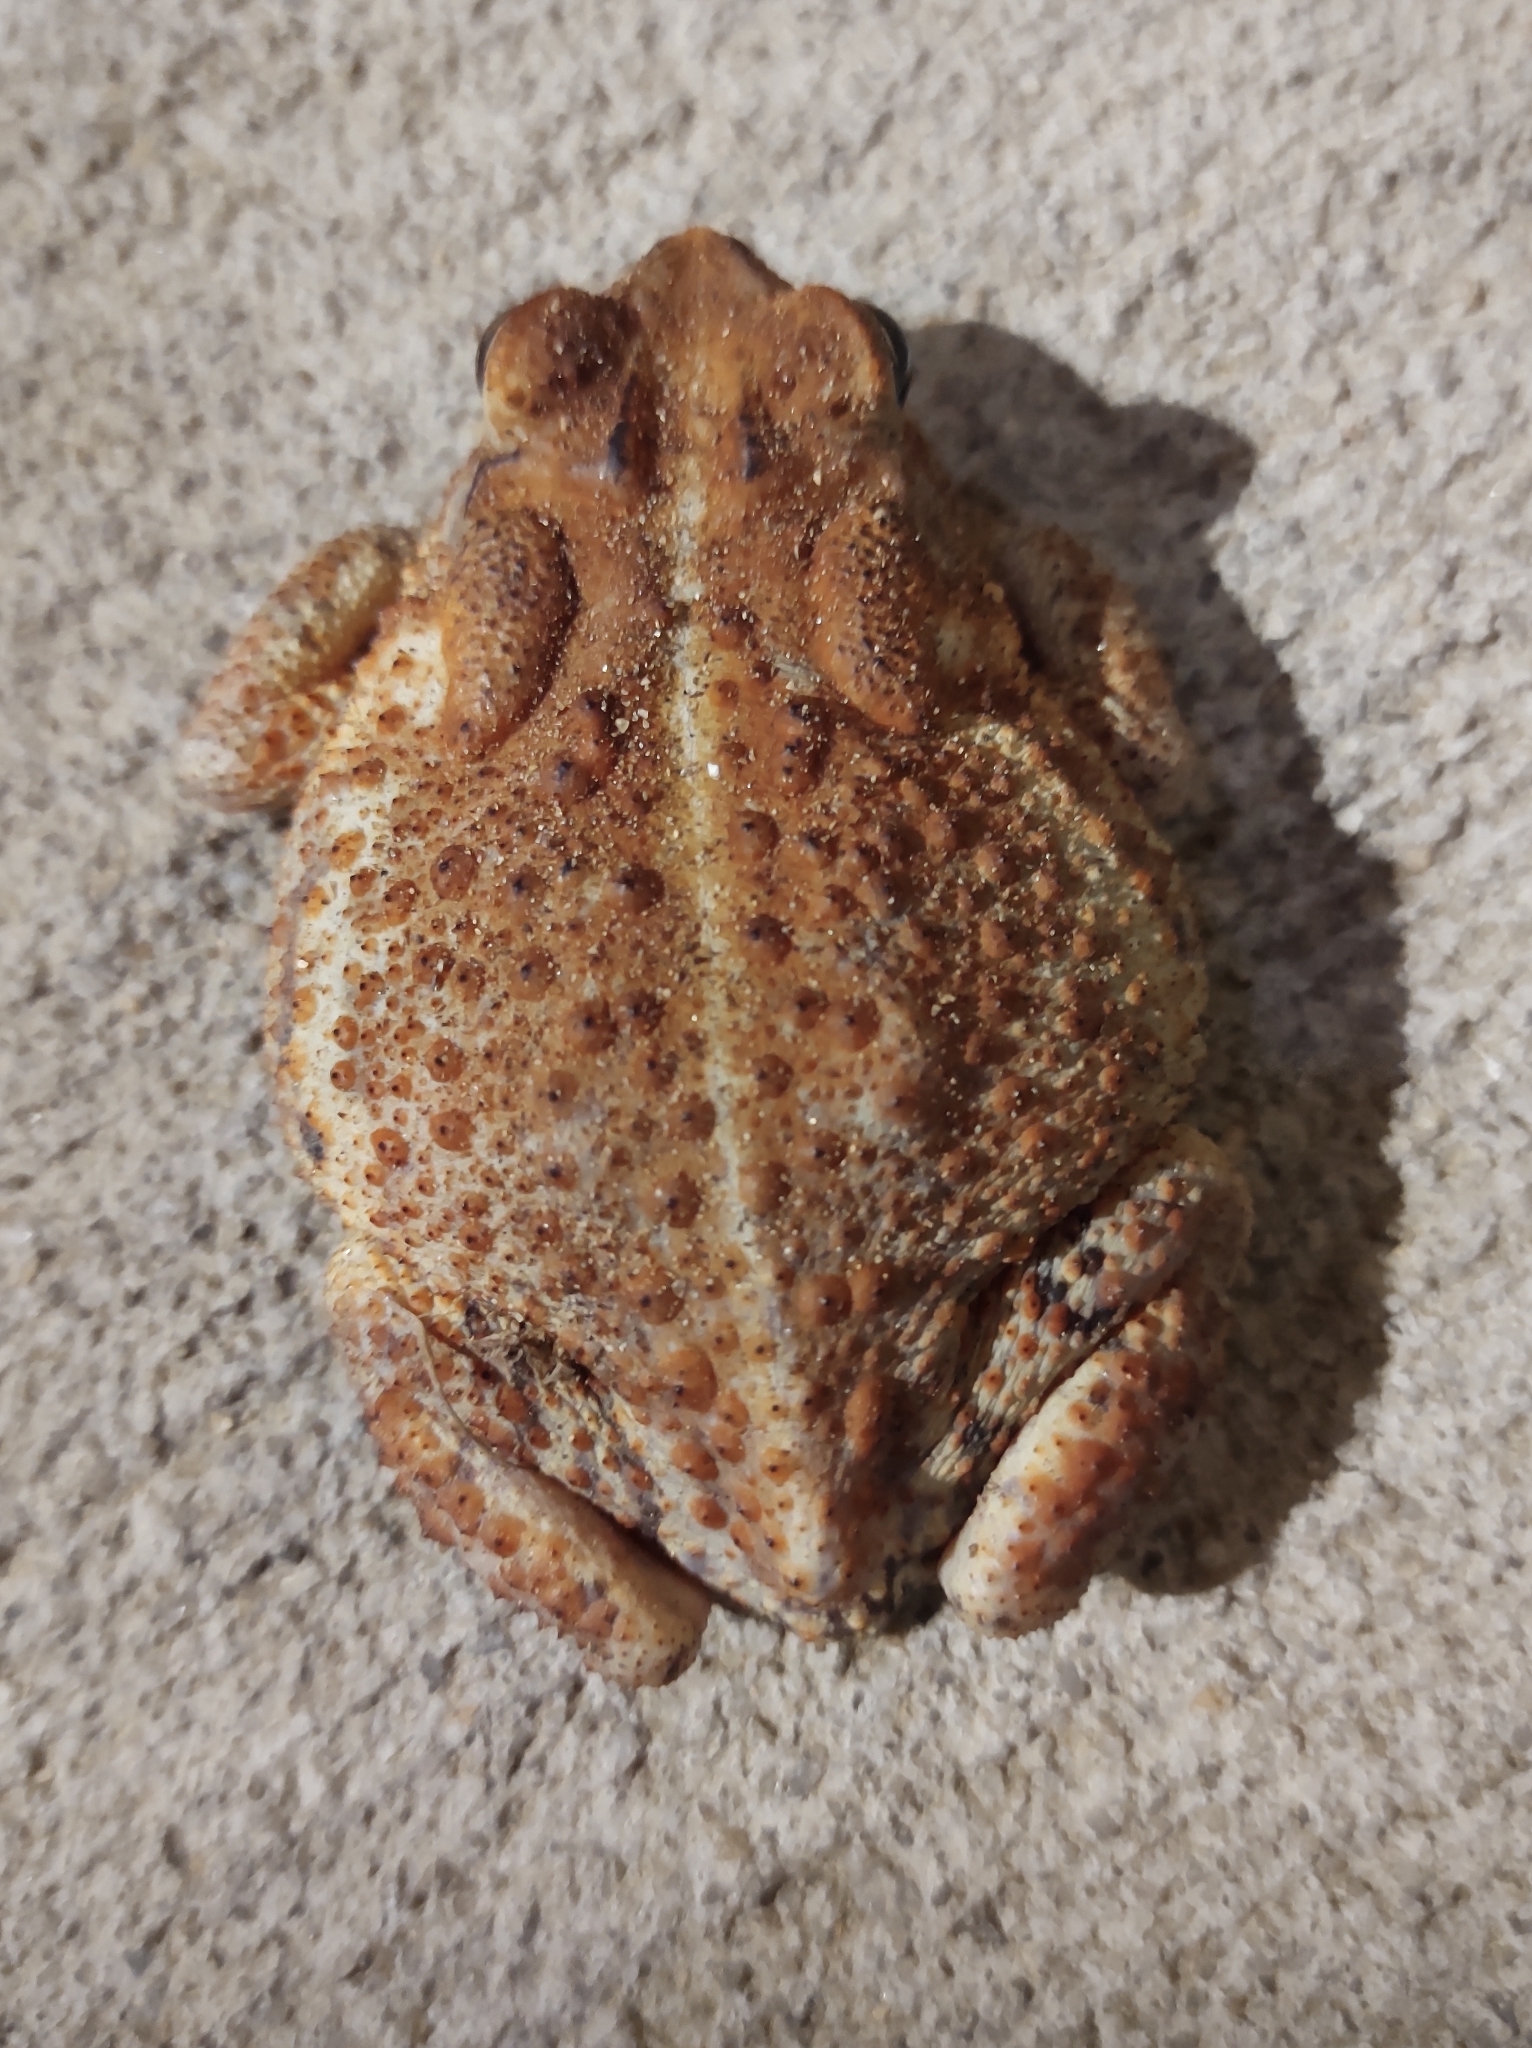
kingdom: Animalia
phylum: Chordata
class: Amphibia
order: Anura
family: Bufonidae
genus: Anaxyrus
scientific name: Anaxyrus terrestris
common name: Southern toad
